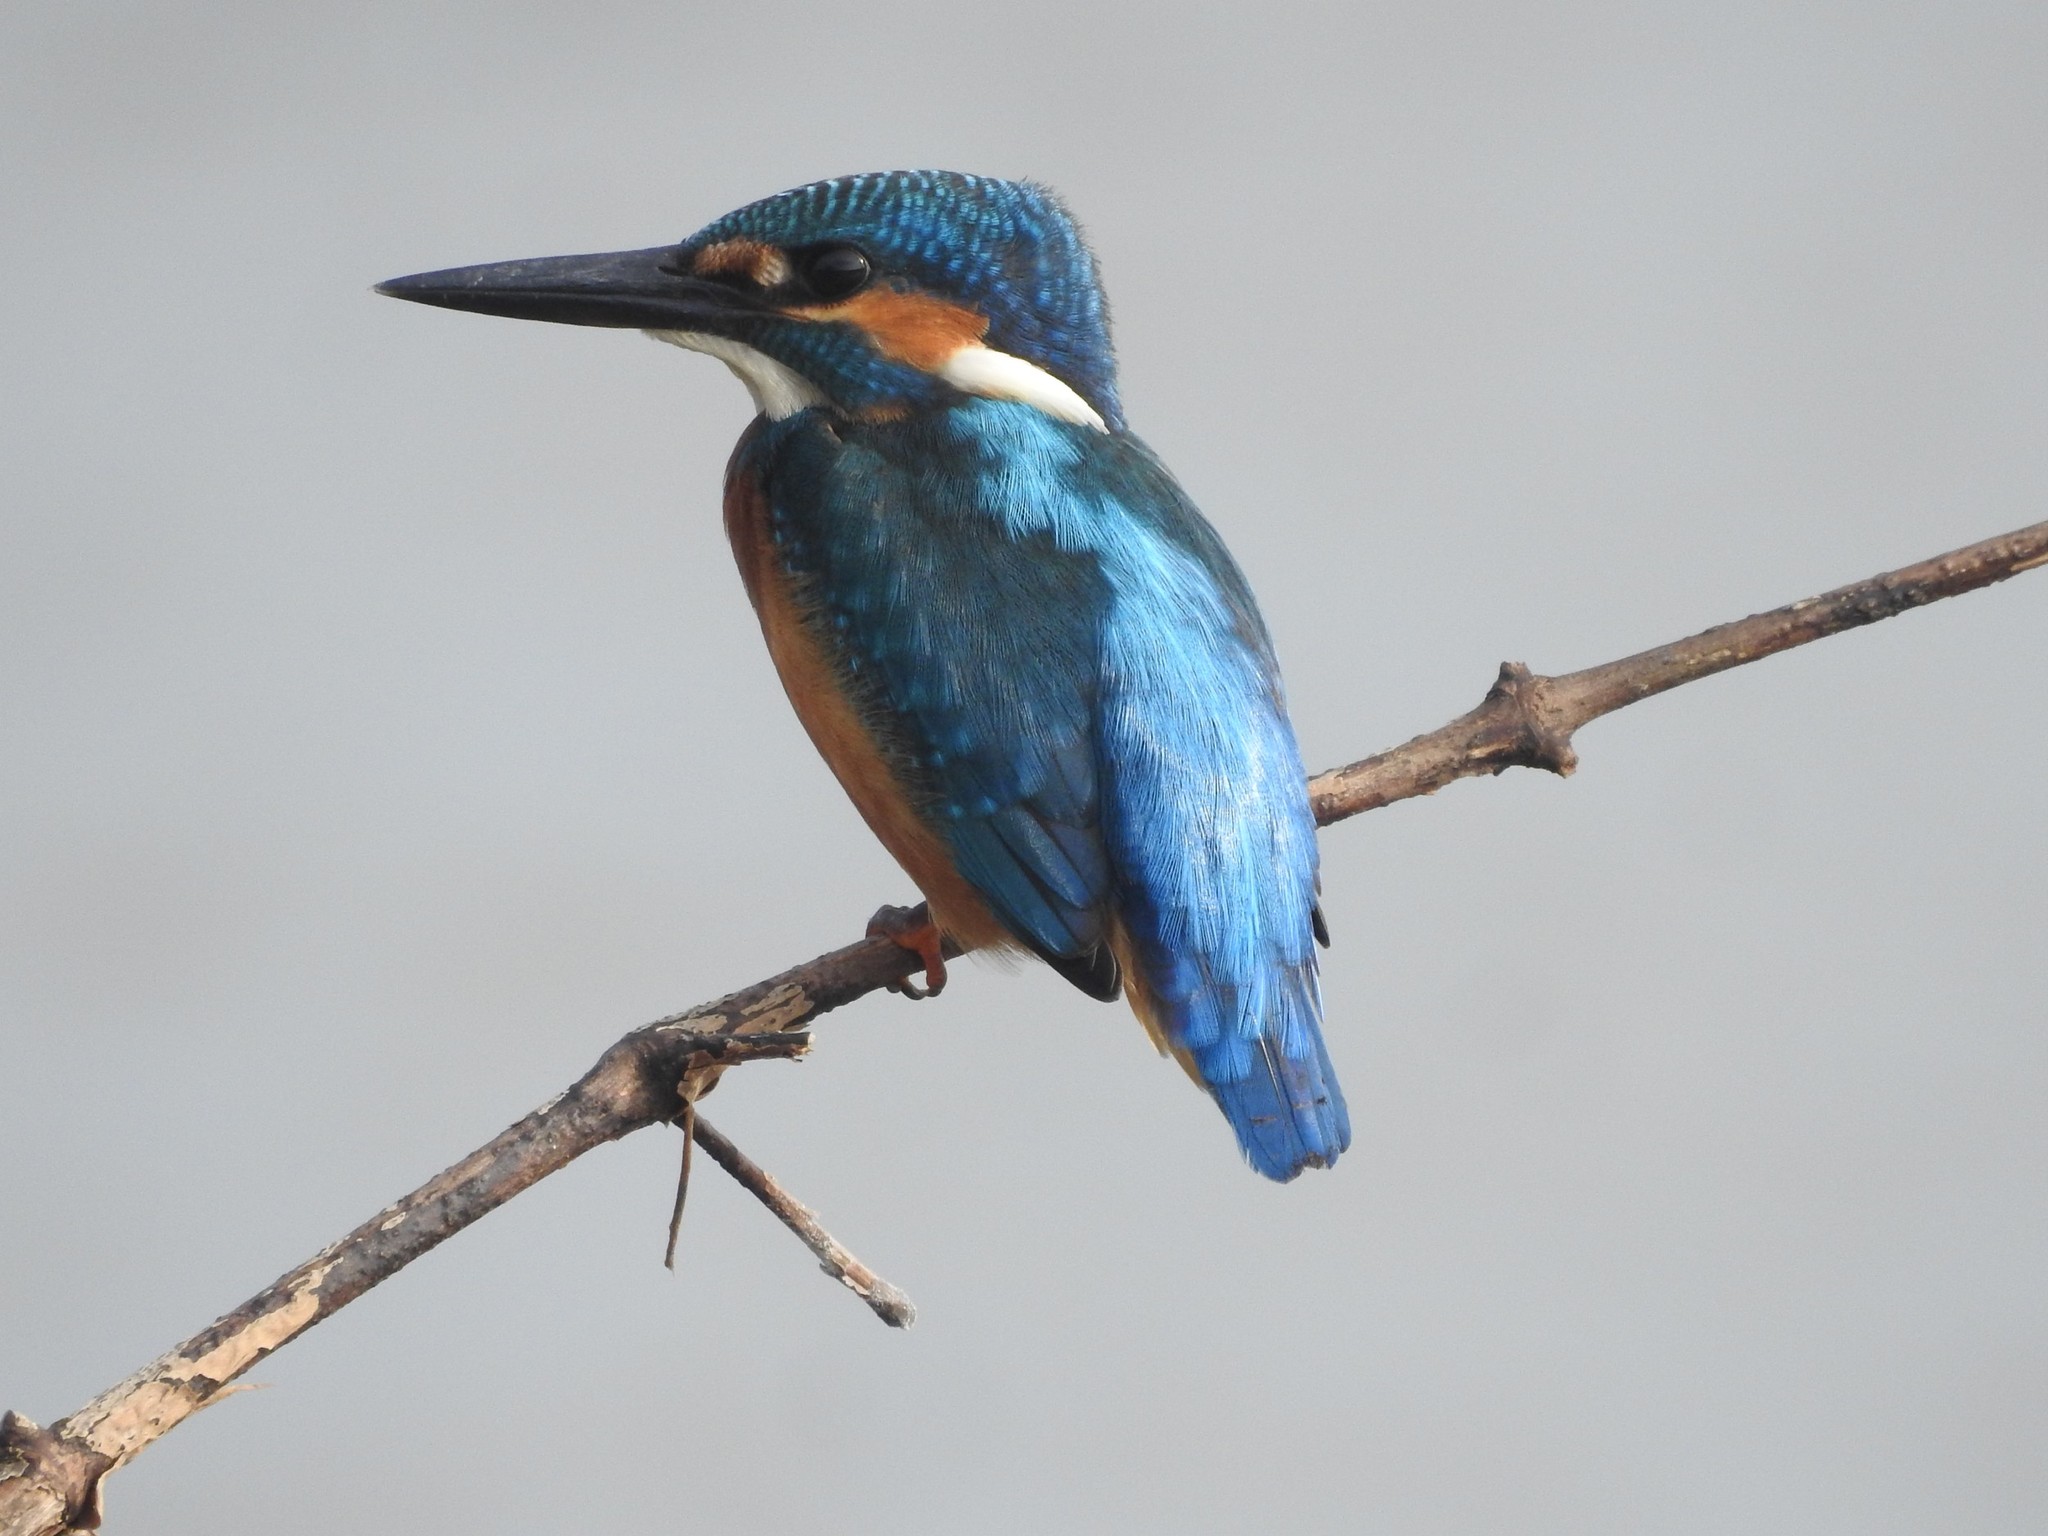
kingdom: Animalia
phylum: Chordata
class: Aves
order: Coraciiformes
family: Alcedinidae
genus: Alcedo
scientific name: Alcedo atthis
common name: Common kingfisher
